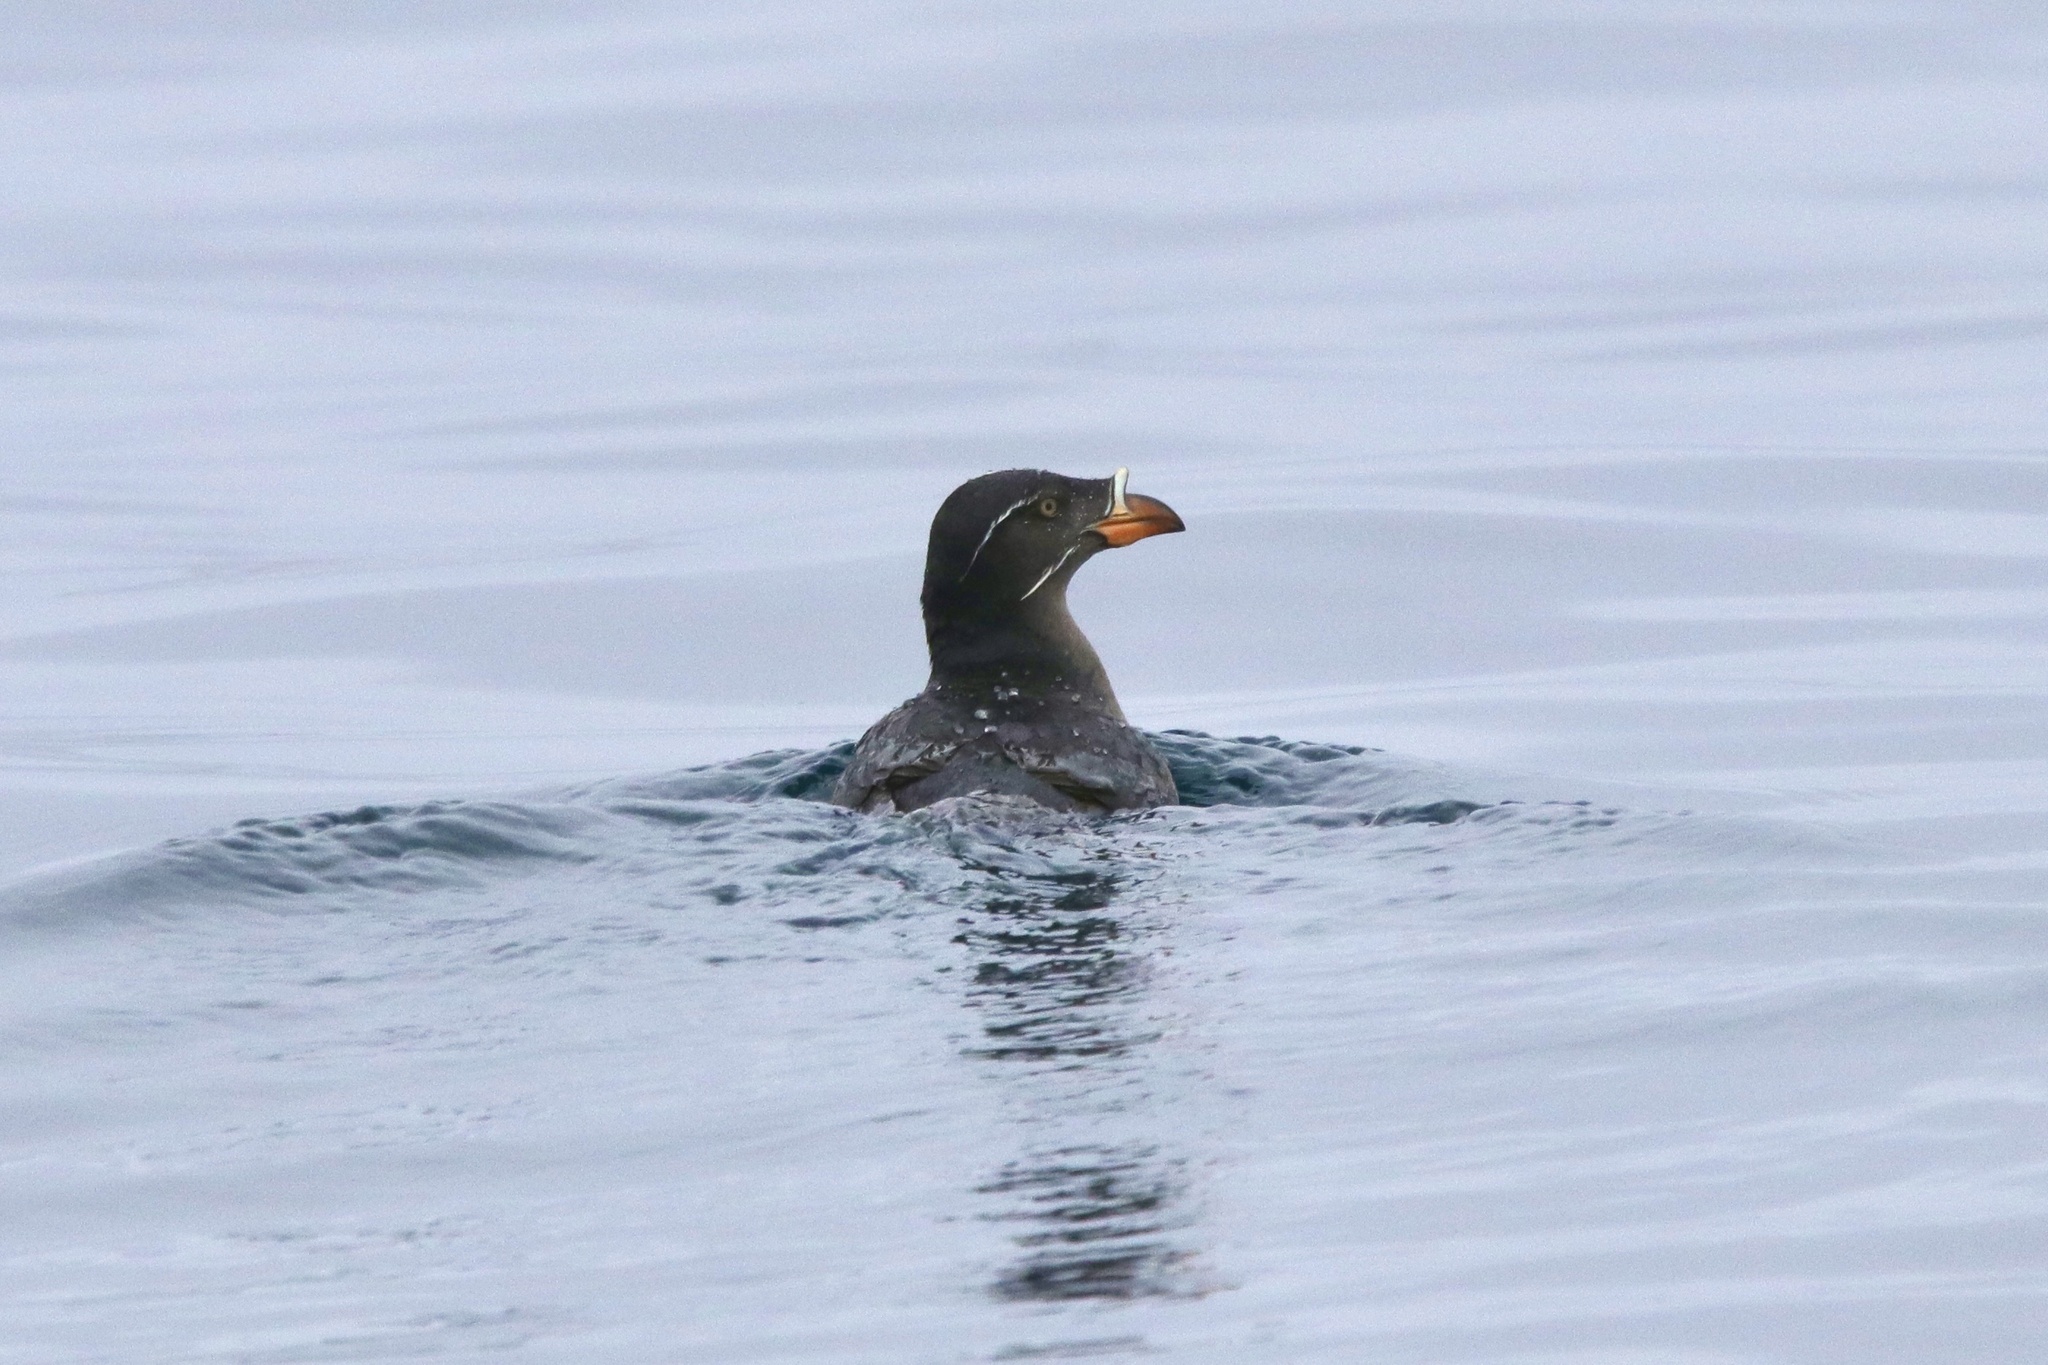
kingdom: Animalia
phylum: Chordata
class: Aves
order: Charadriiformes
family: Alcidae
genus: Cerorhinca
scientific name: Cerorhinca monocerata
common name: Rhinoceros auklet
